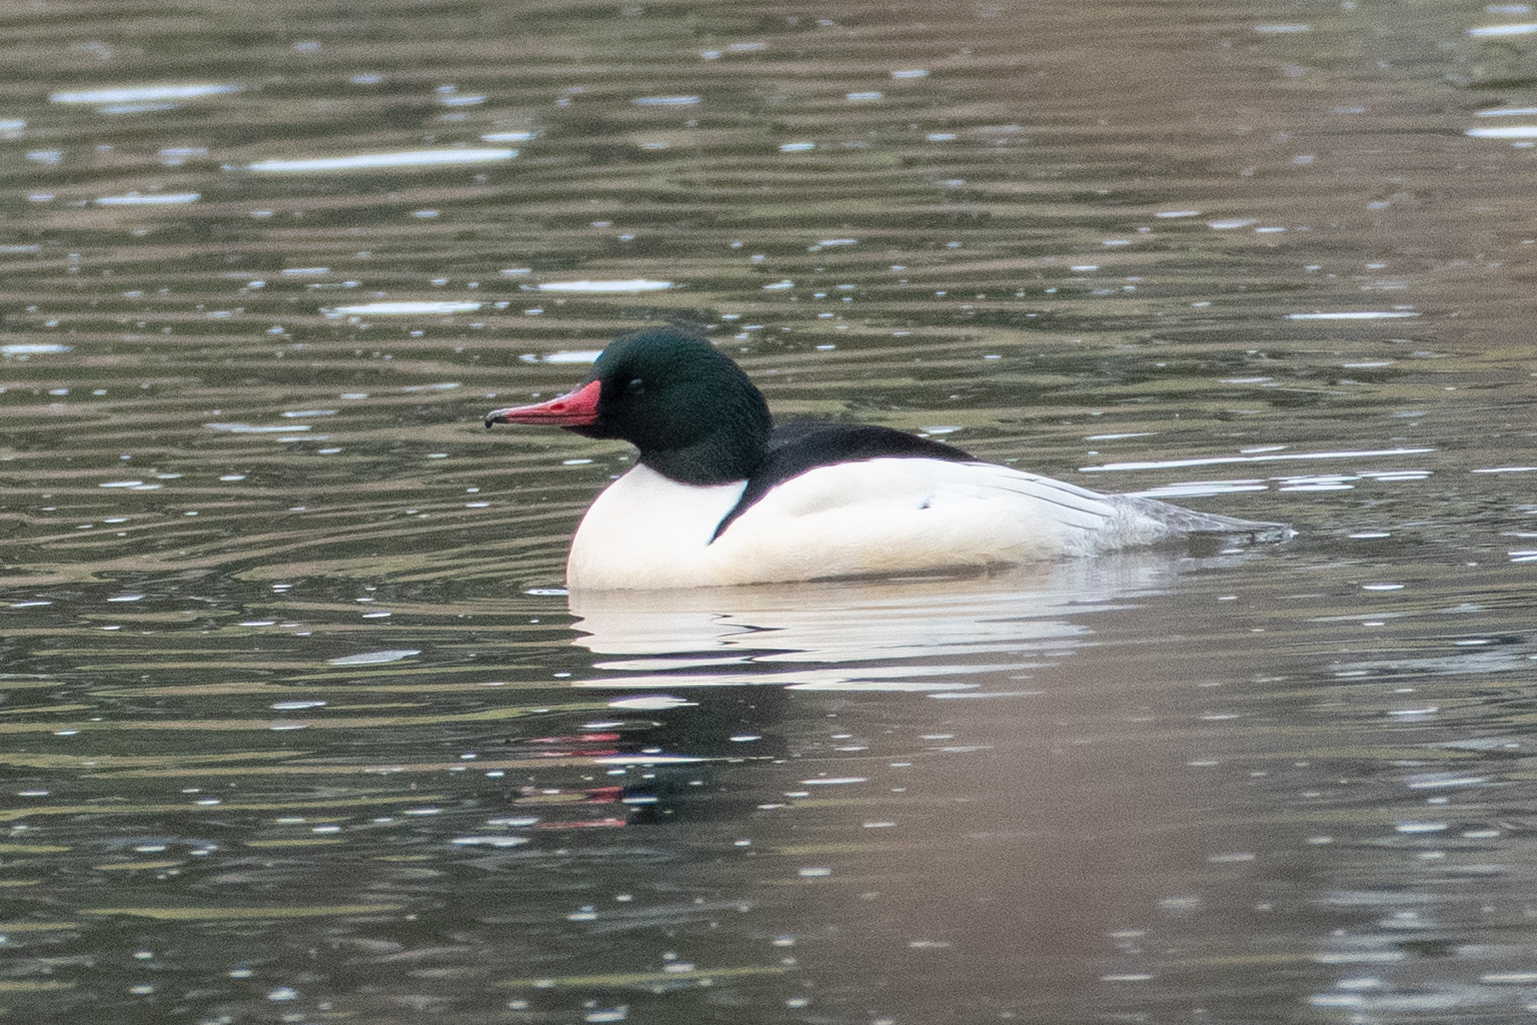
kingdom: Animalia
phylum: Chordata
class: Aves
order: Anseriformes
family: Anatidae
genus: Mergus
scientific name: Mergus merganser
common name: Common merganser
